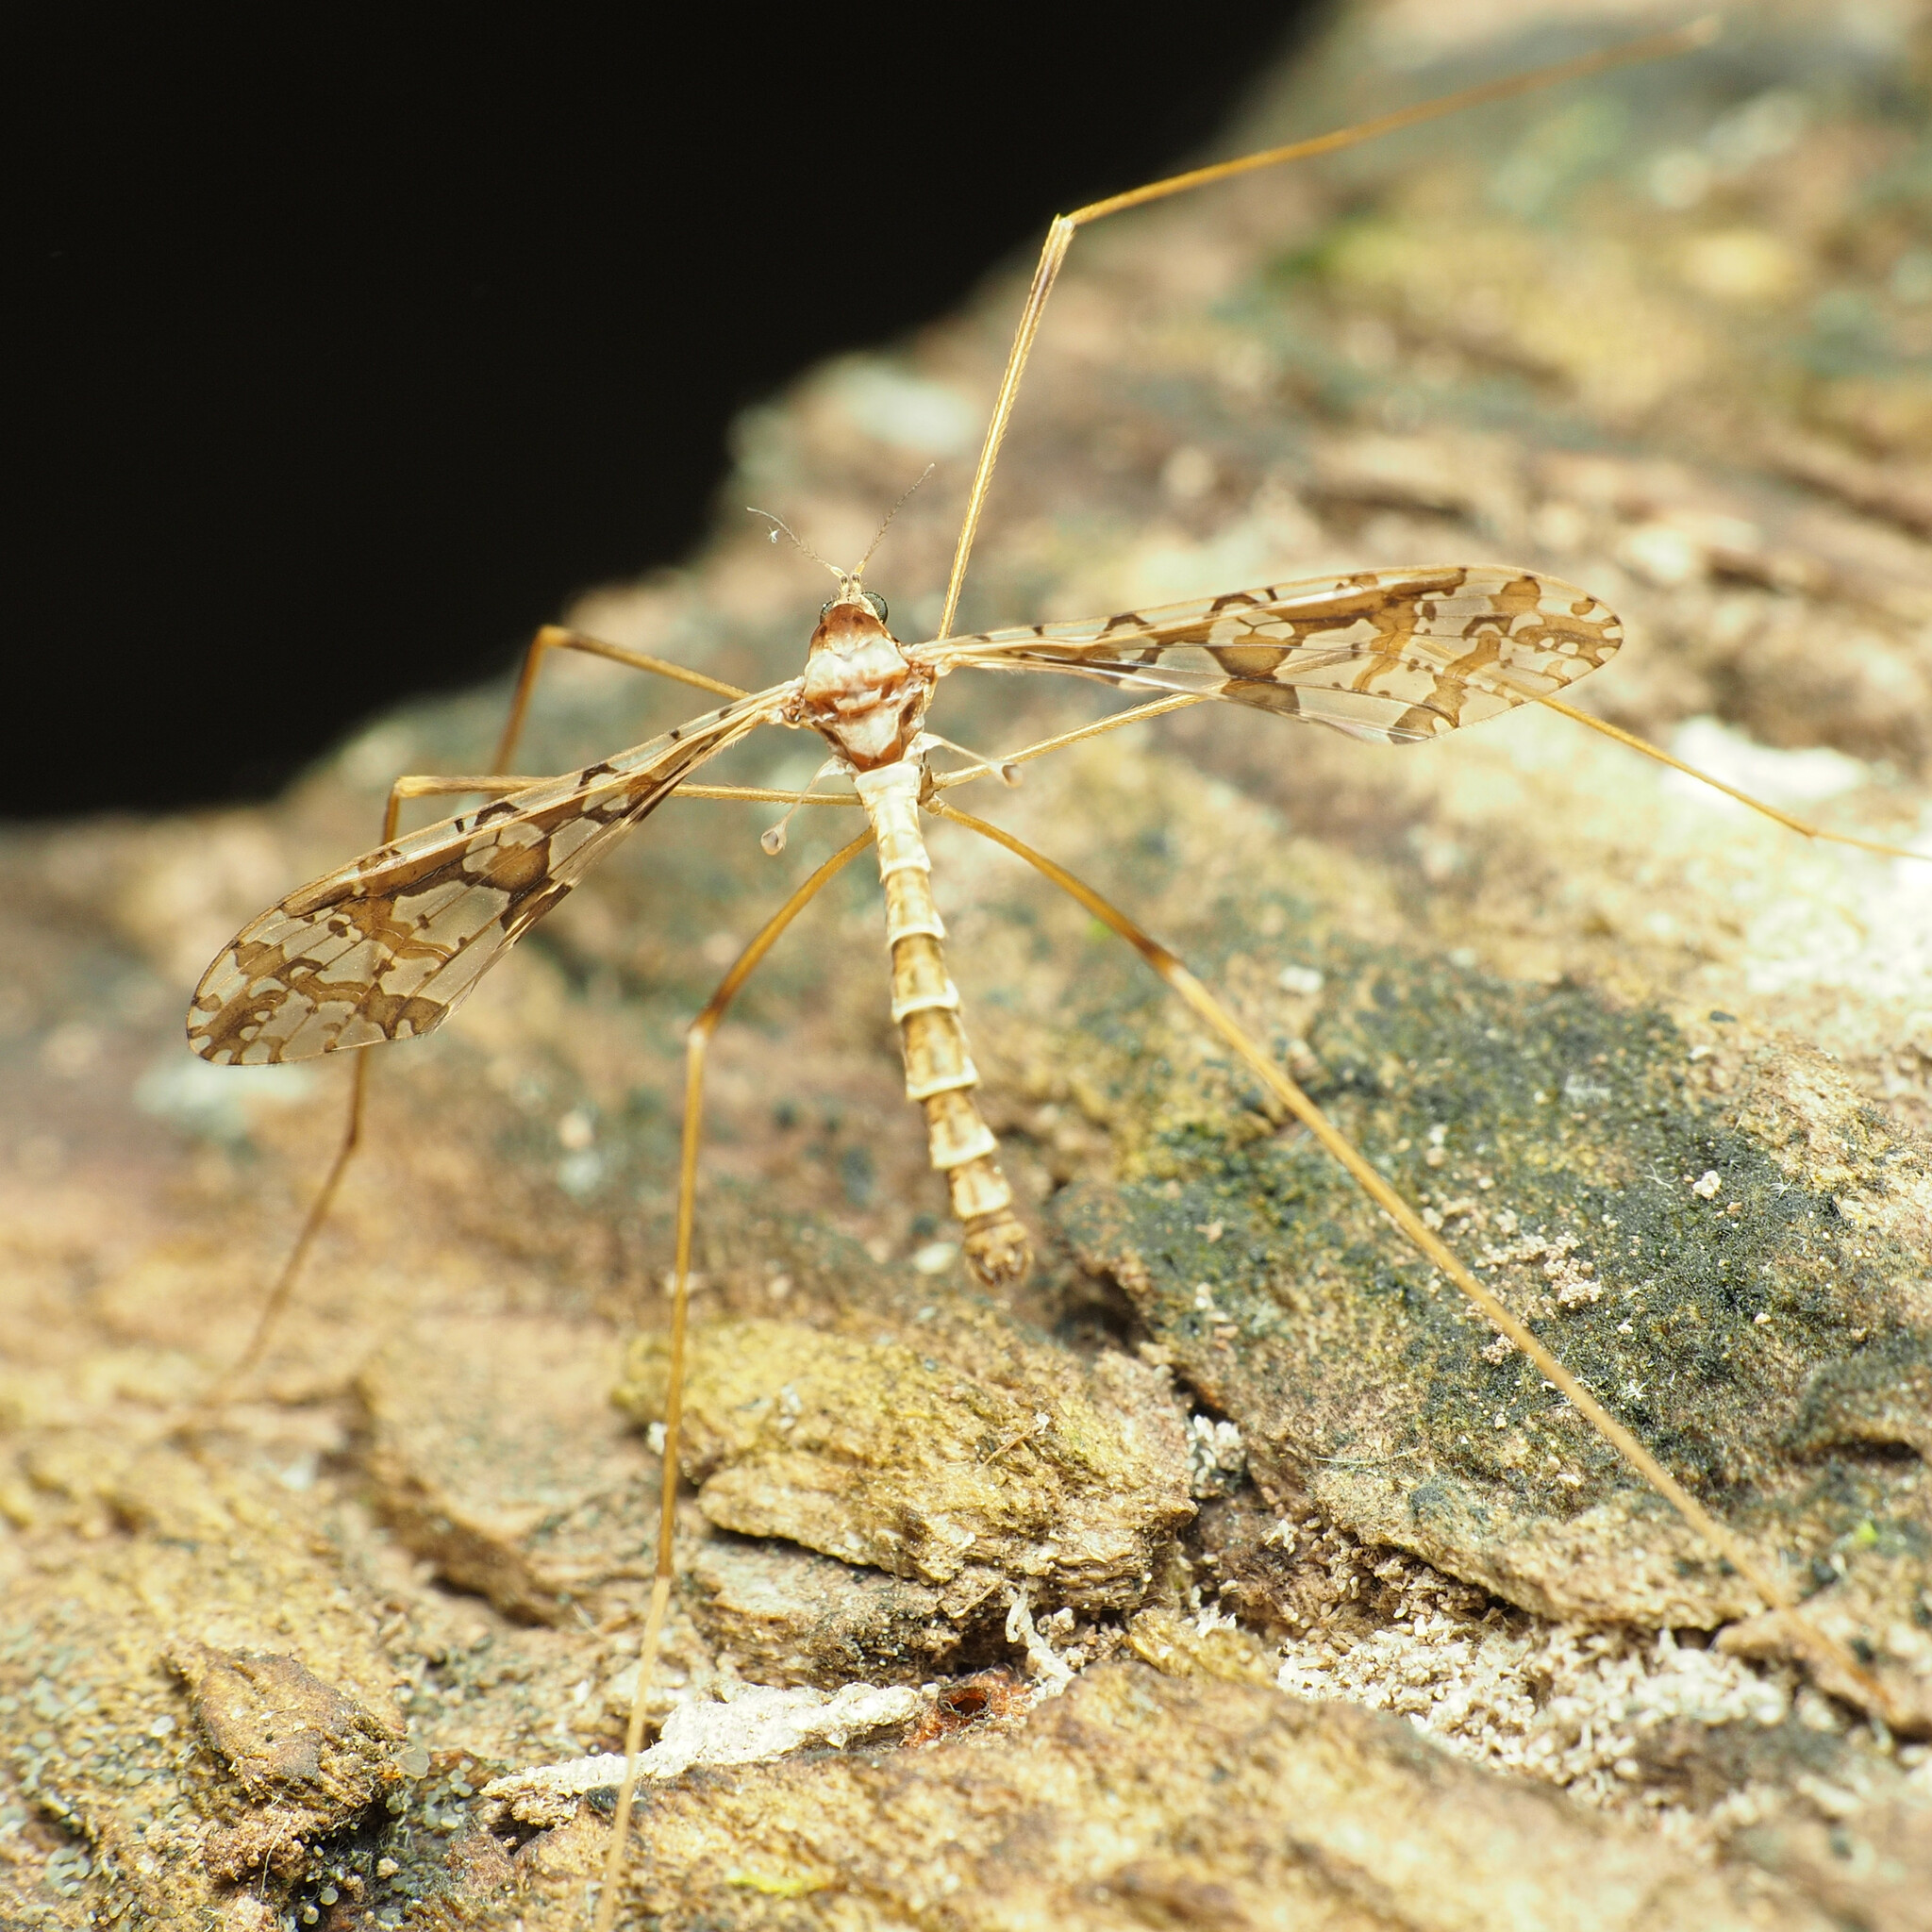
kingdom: Animalia
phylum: Arthropoda
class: Insecta
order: Diptera
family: Limoniidae
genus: Epiphragma
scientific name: Epiphragma solatrix
